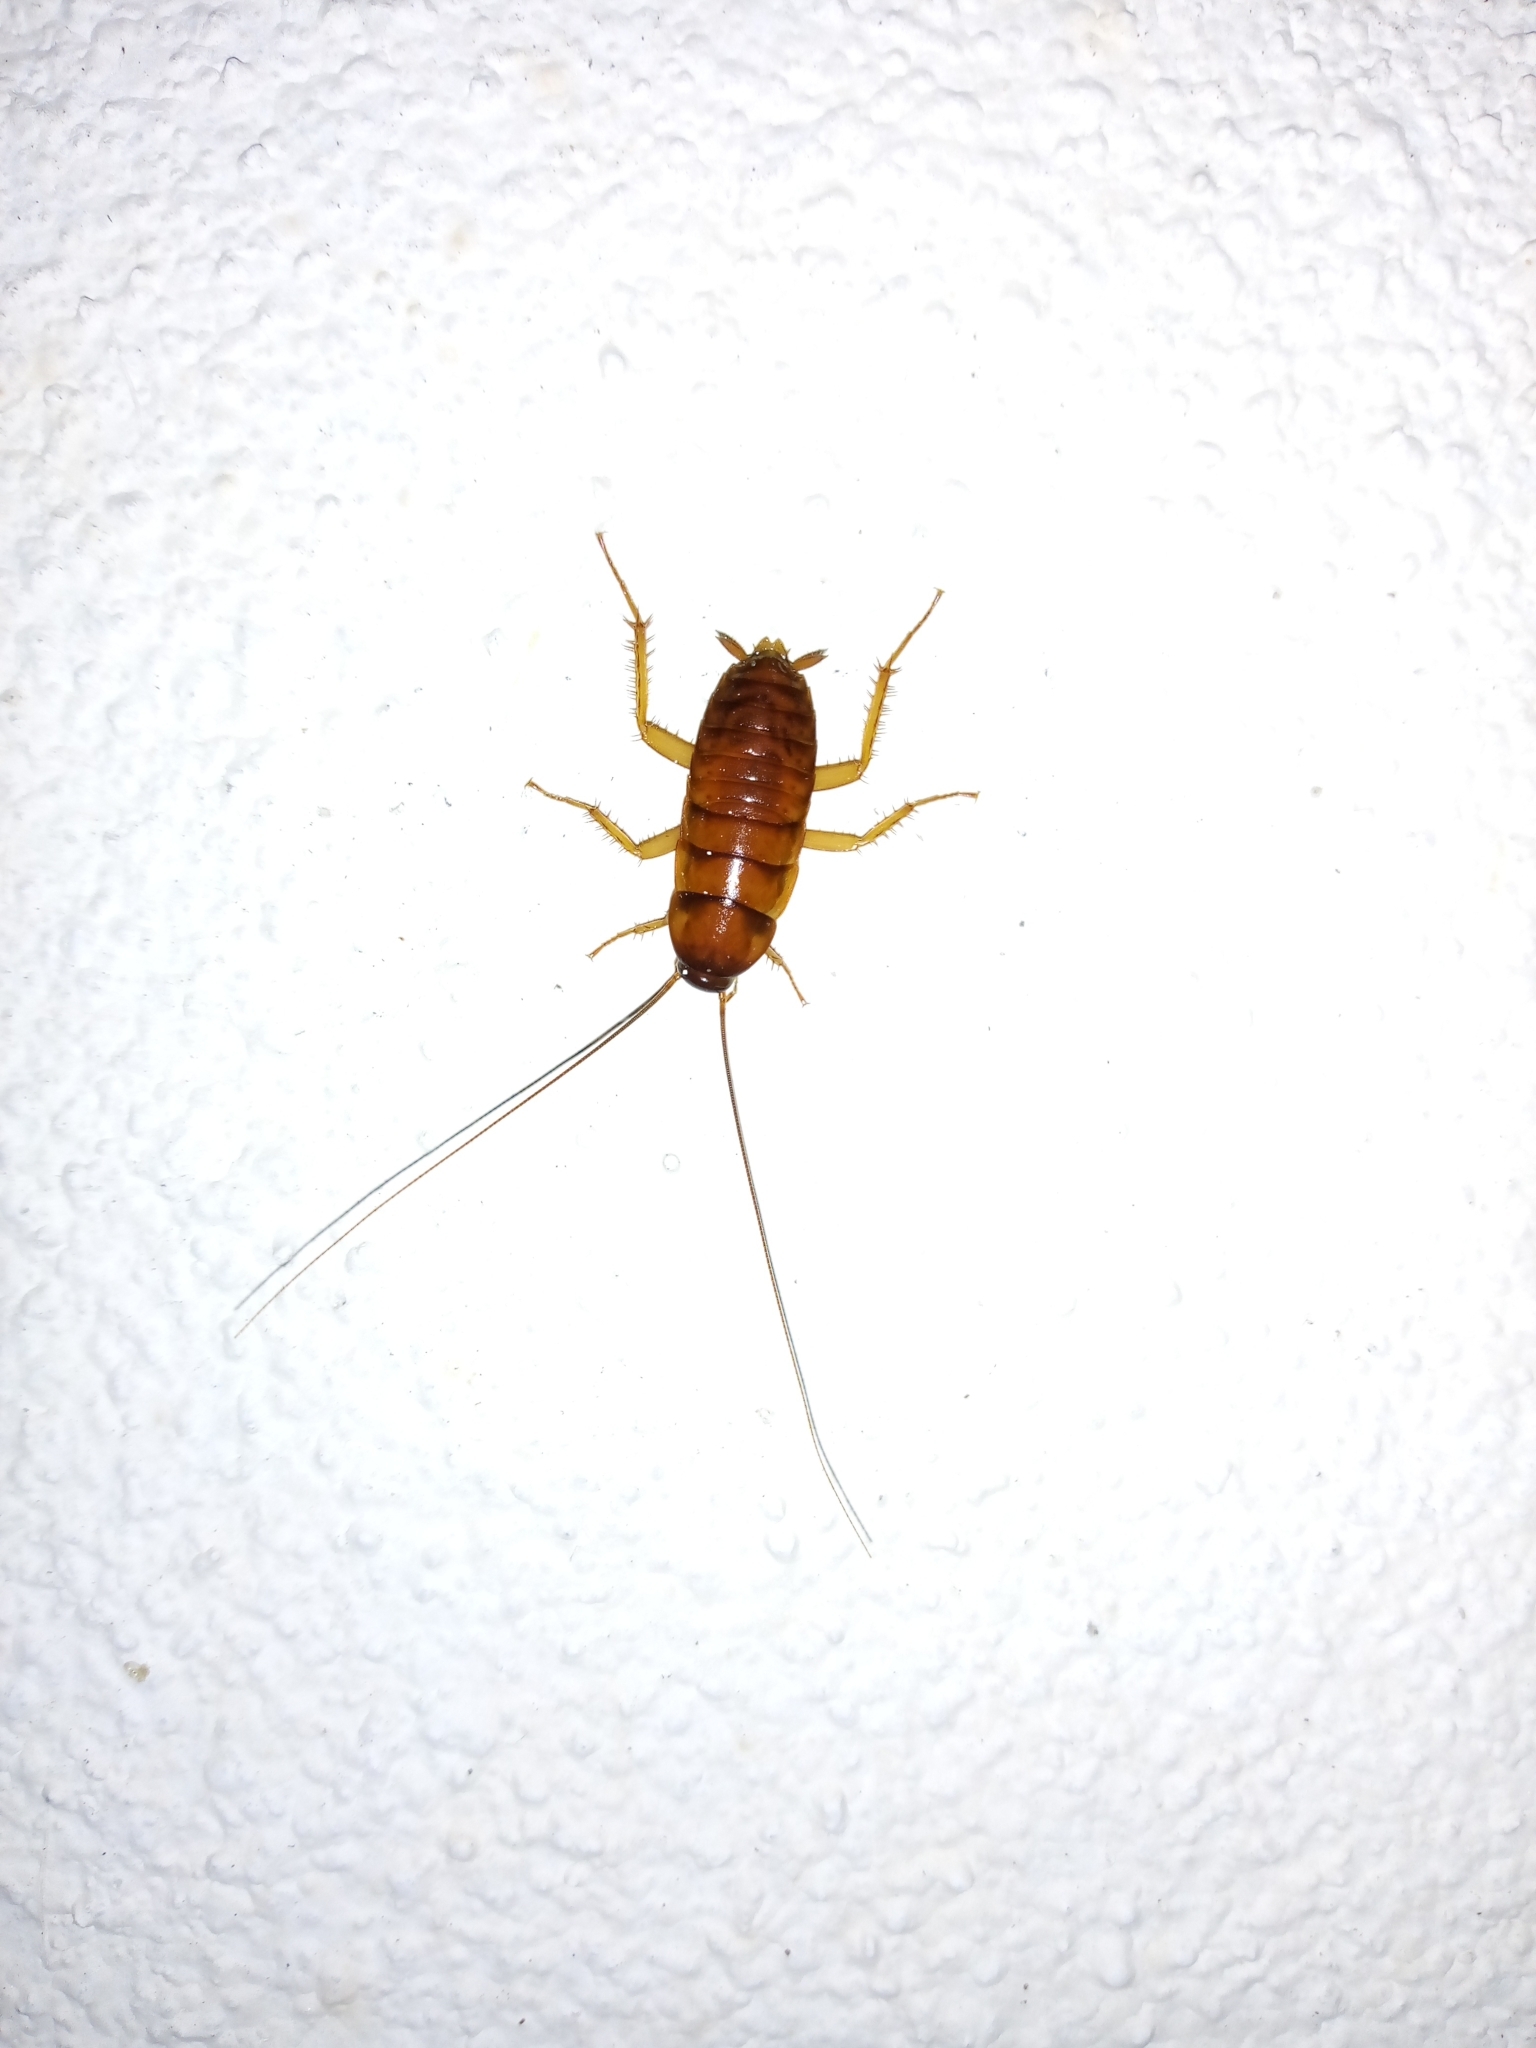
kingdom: Animalia
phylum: Arthropoda
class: Insecta
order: Blattodea
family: Blattidae
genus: Periplaneta
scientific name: Periplaneta americana
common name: American cockroach
